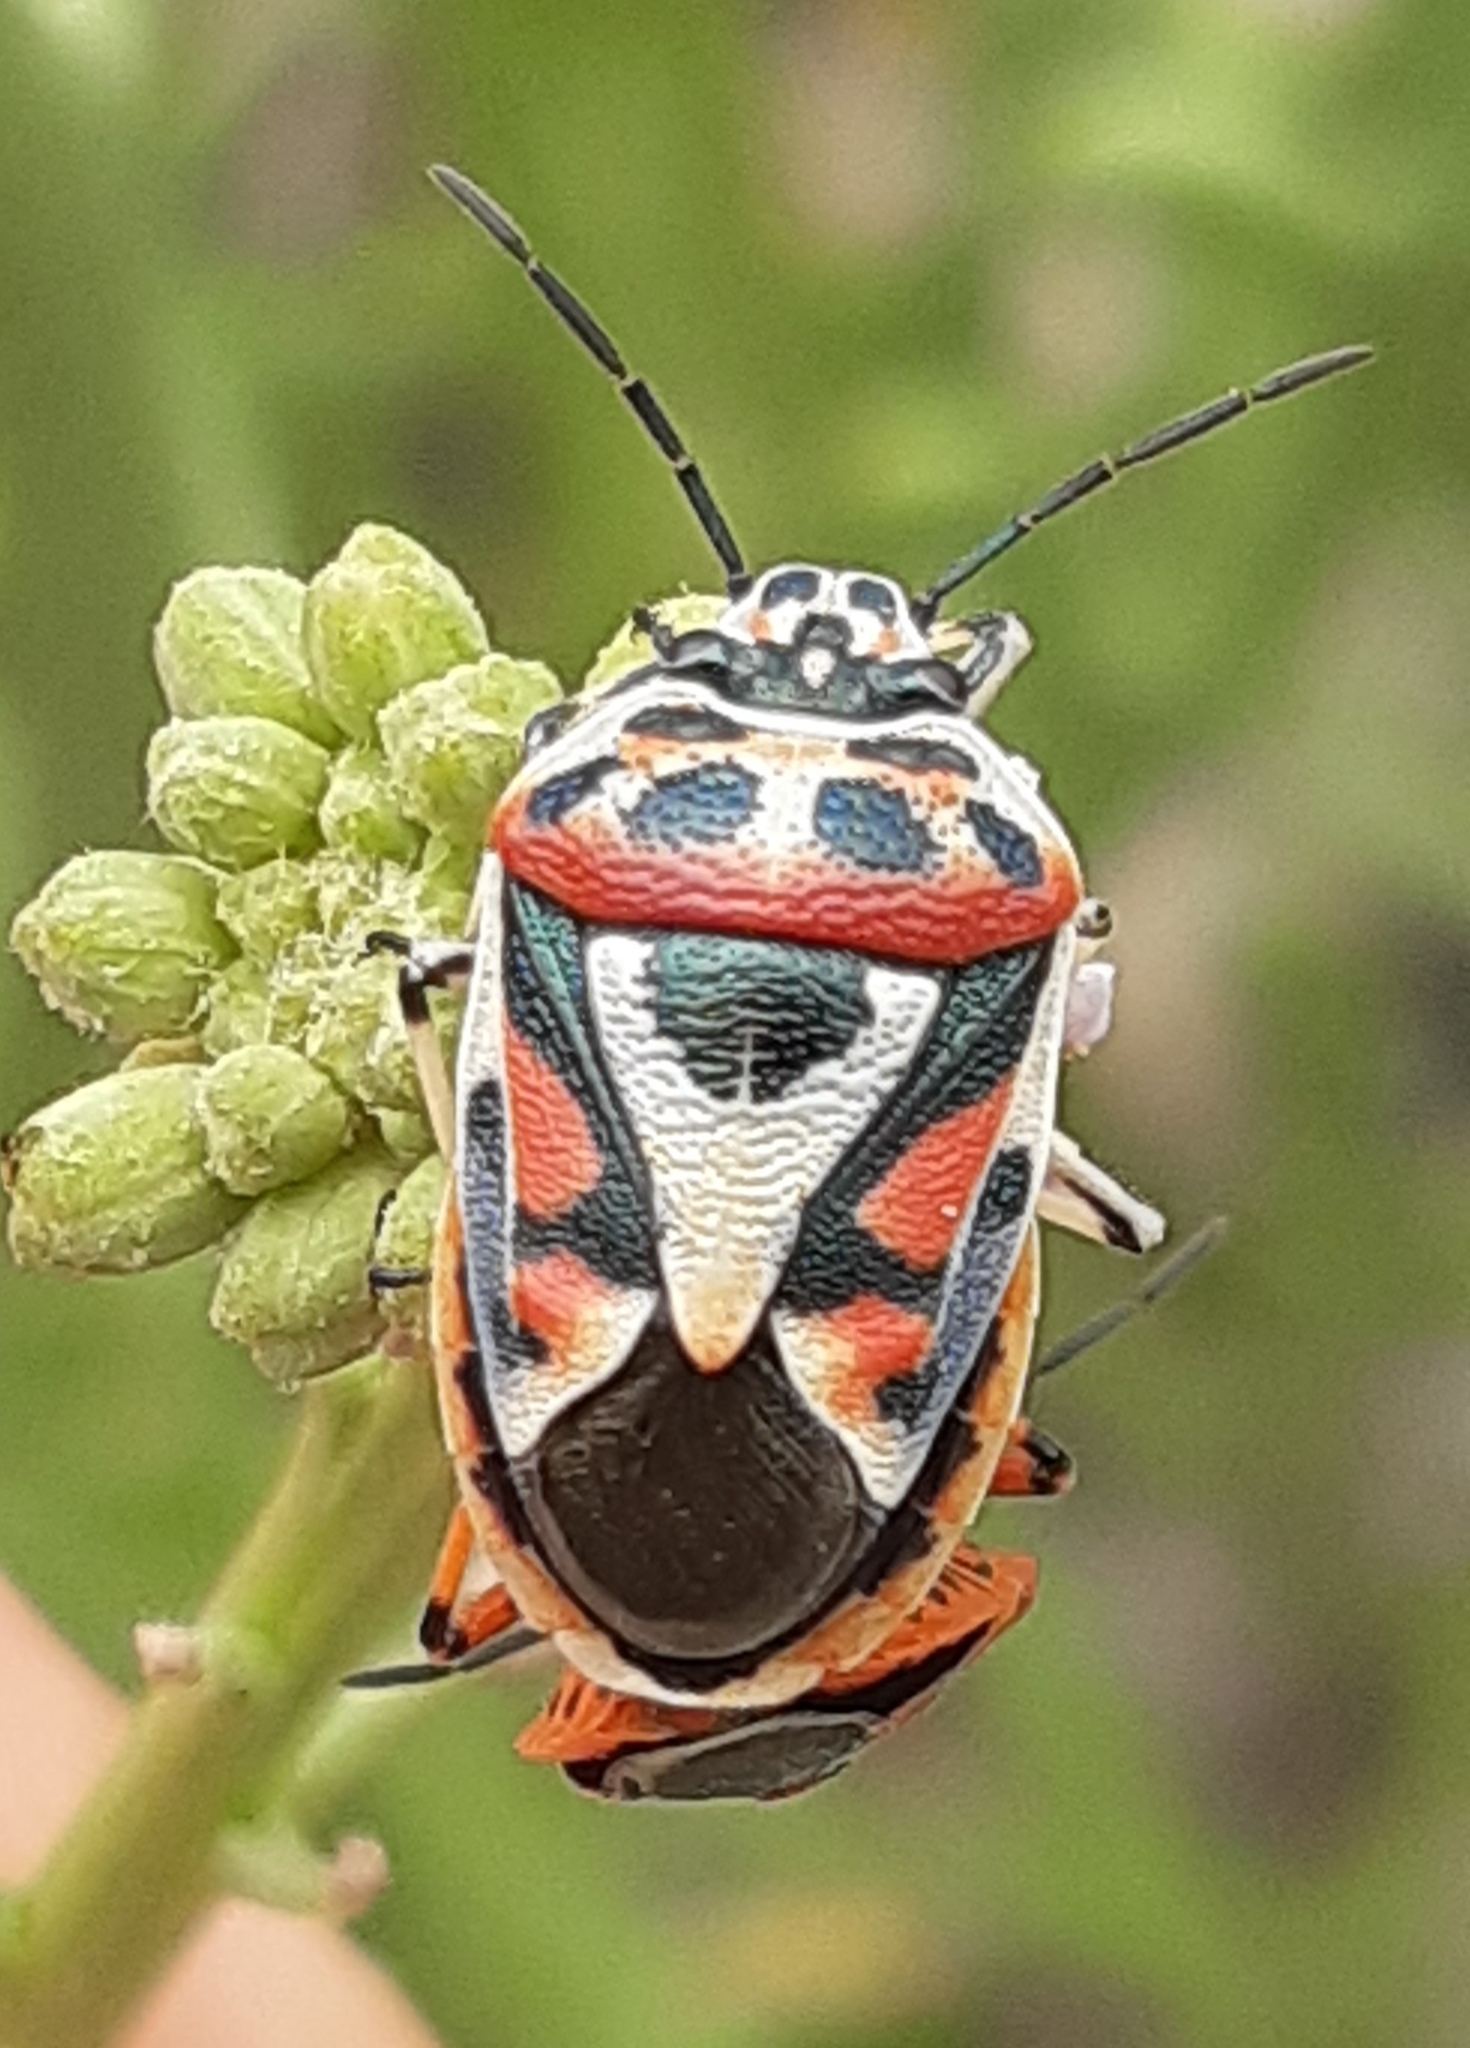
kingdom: Animalia
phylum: Arthropoda
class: Insecta
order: Hemiptera
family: Pentatomidae
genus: Eurydema
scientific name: Eurydema ornata
